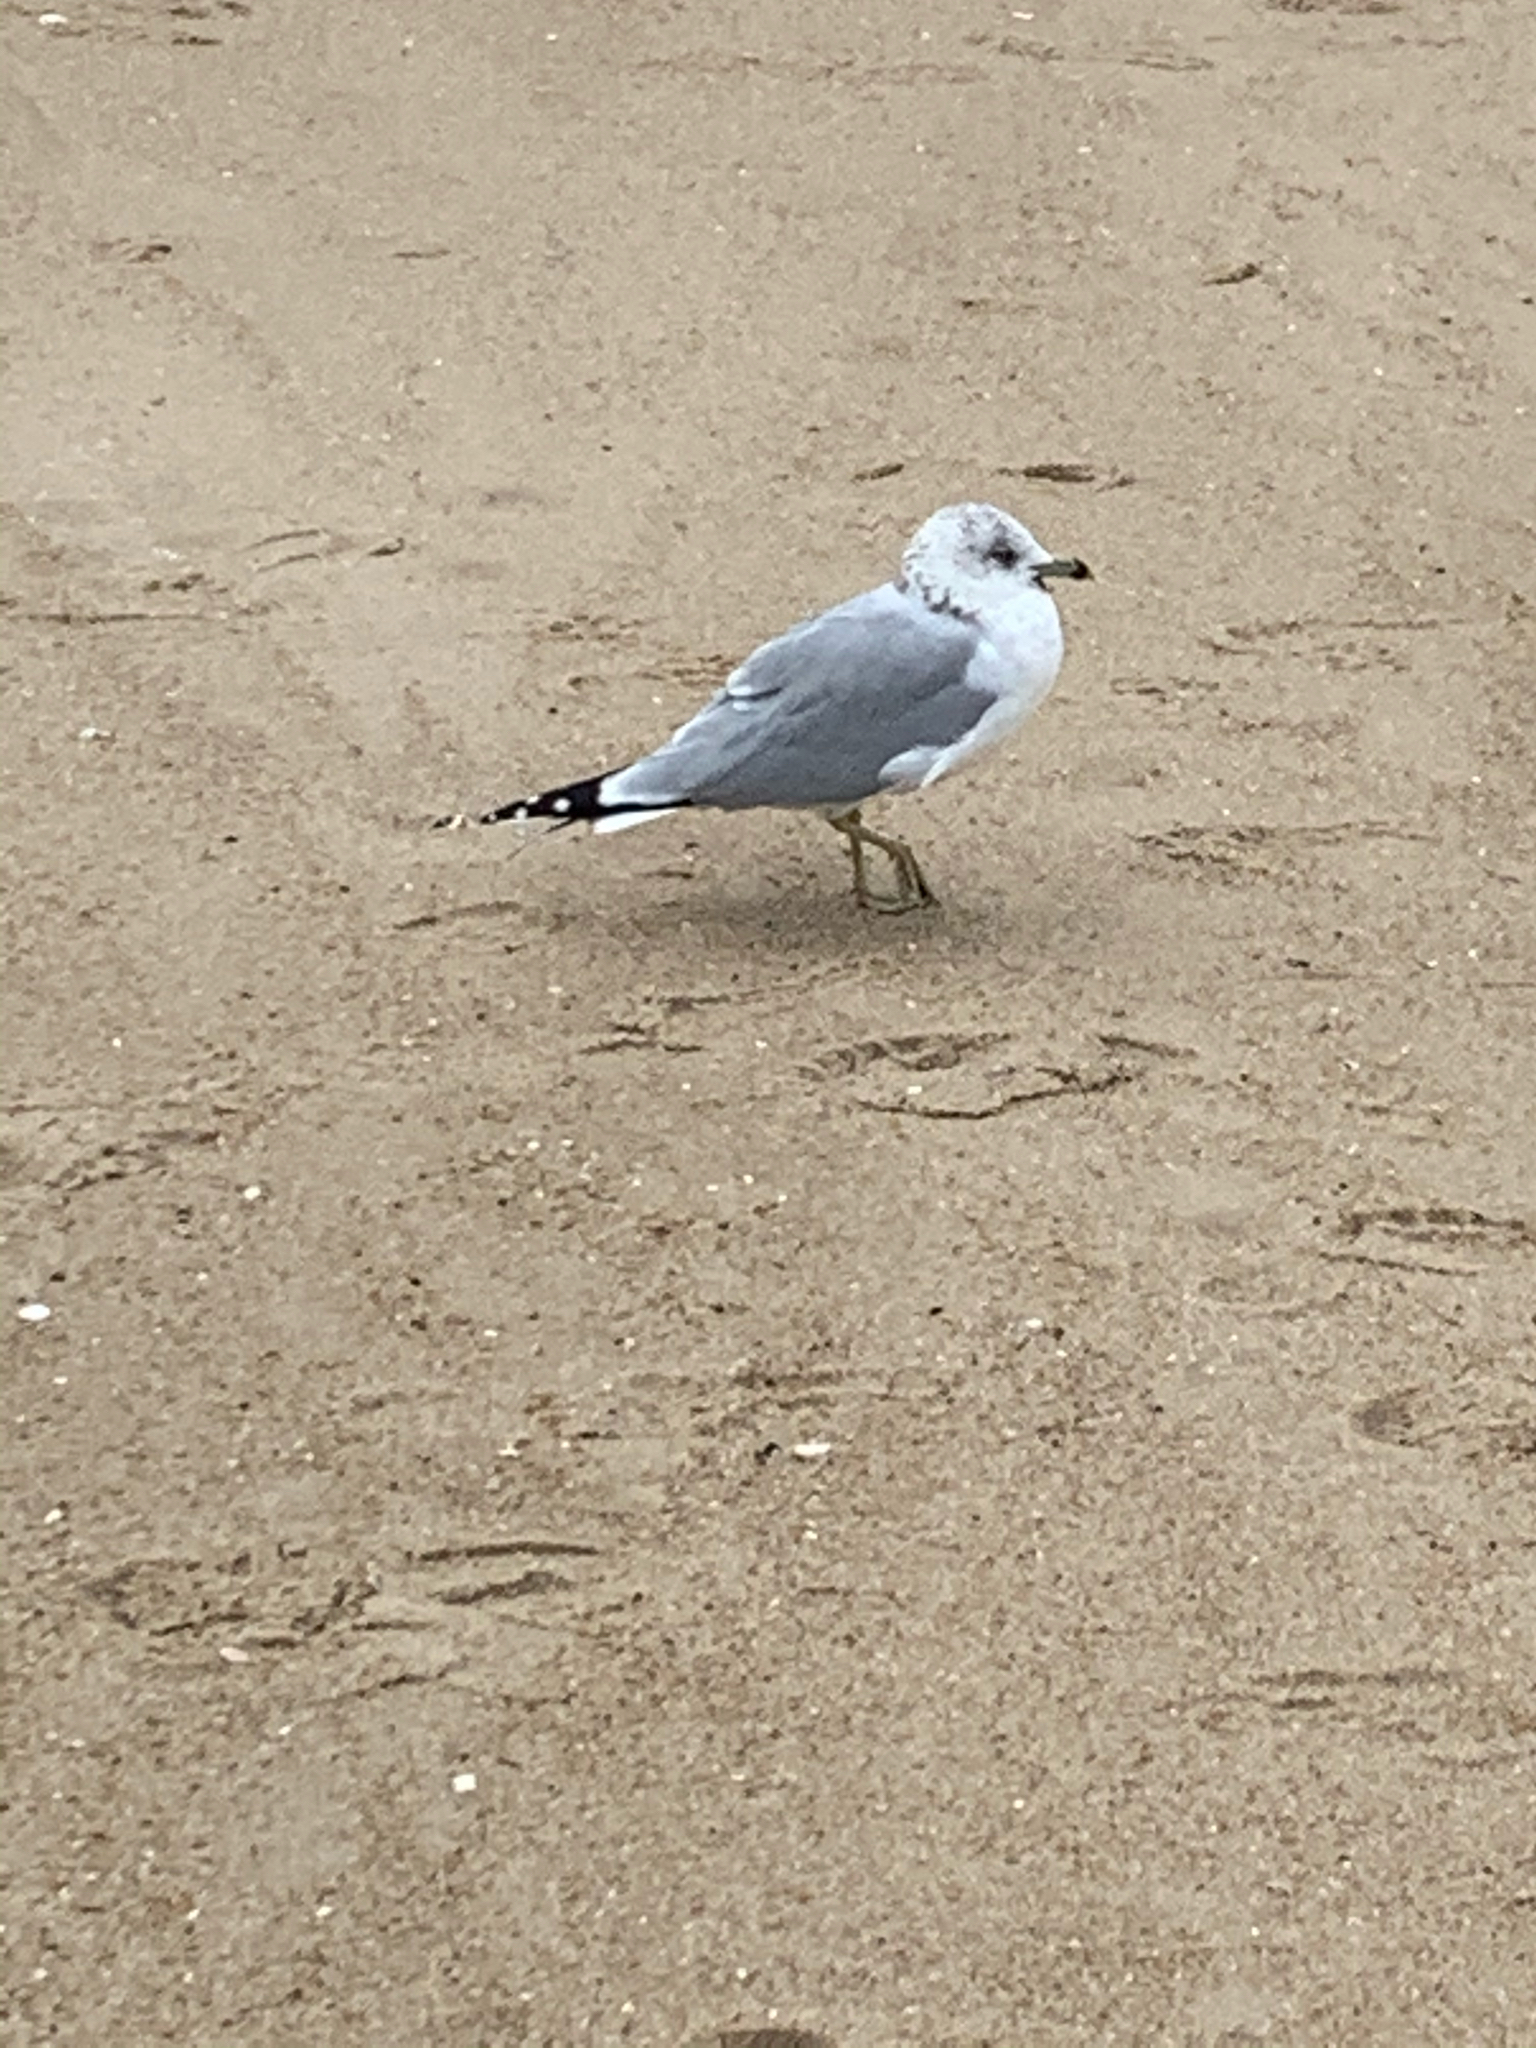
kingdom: Animalia
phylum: Chordata
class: Aves
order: Charadriiformes
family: Laridae
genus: Larus
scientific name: Larus delawarensis
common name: Ring-billed gull
